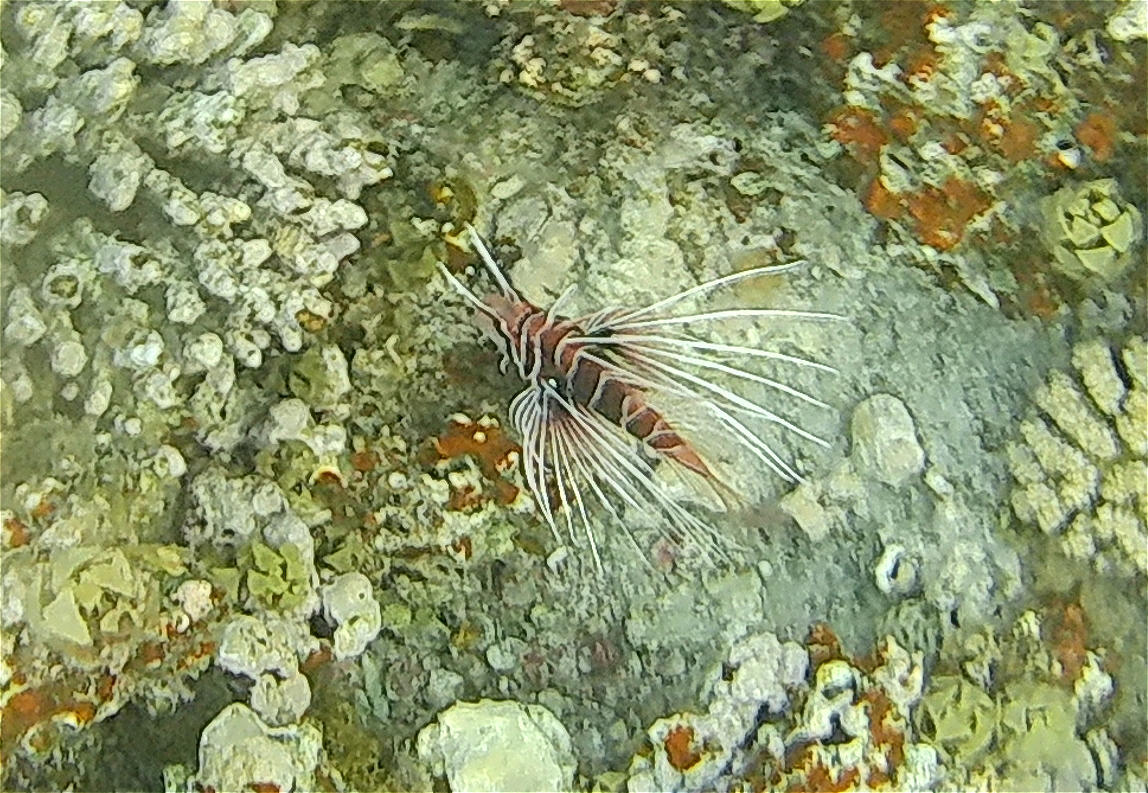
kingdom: Animalia
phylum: Chordata
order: Scorpaeniformes
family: Scorpaenidae
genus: Pterois
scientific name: Pterois cincta
